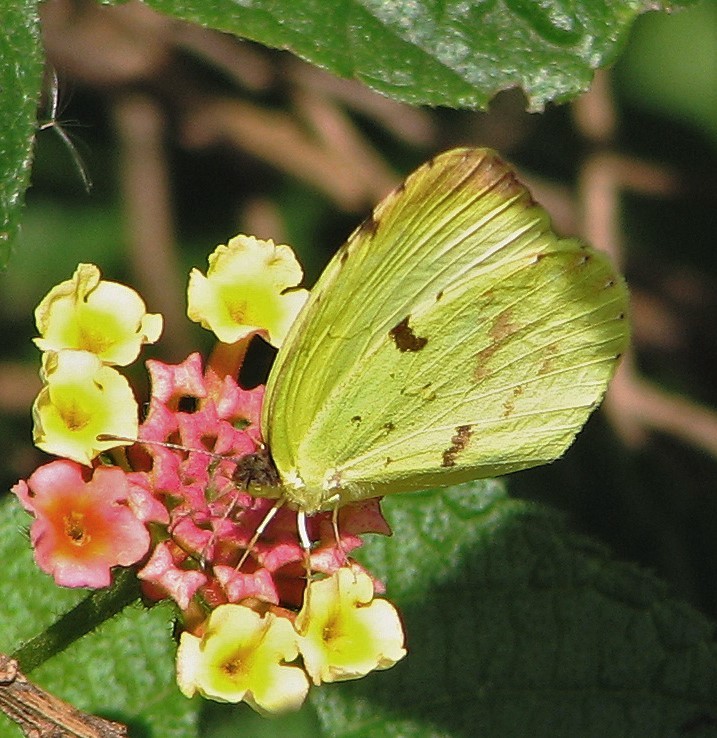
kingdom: Animalia
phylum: Arthropoda
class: Insecta
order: Lepidoptera
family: Pieridae
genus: Teriocolias
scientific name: Teriocolias
